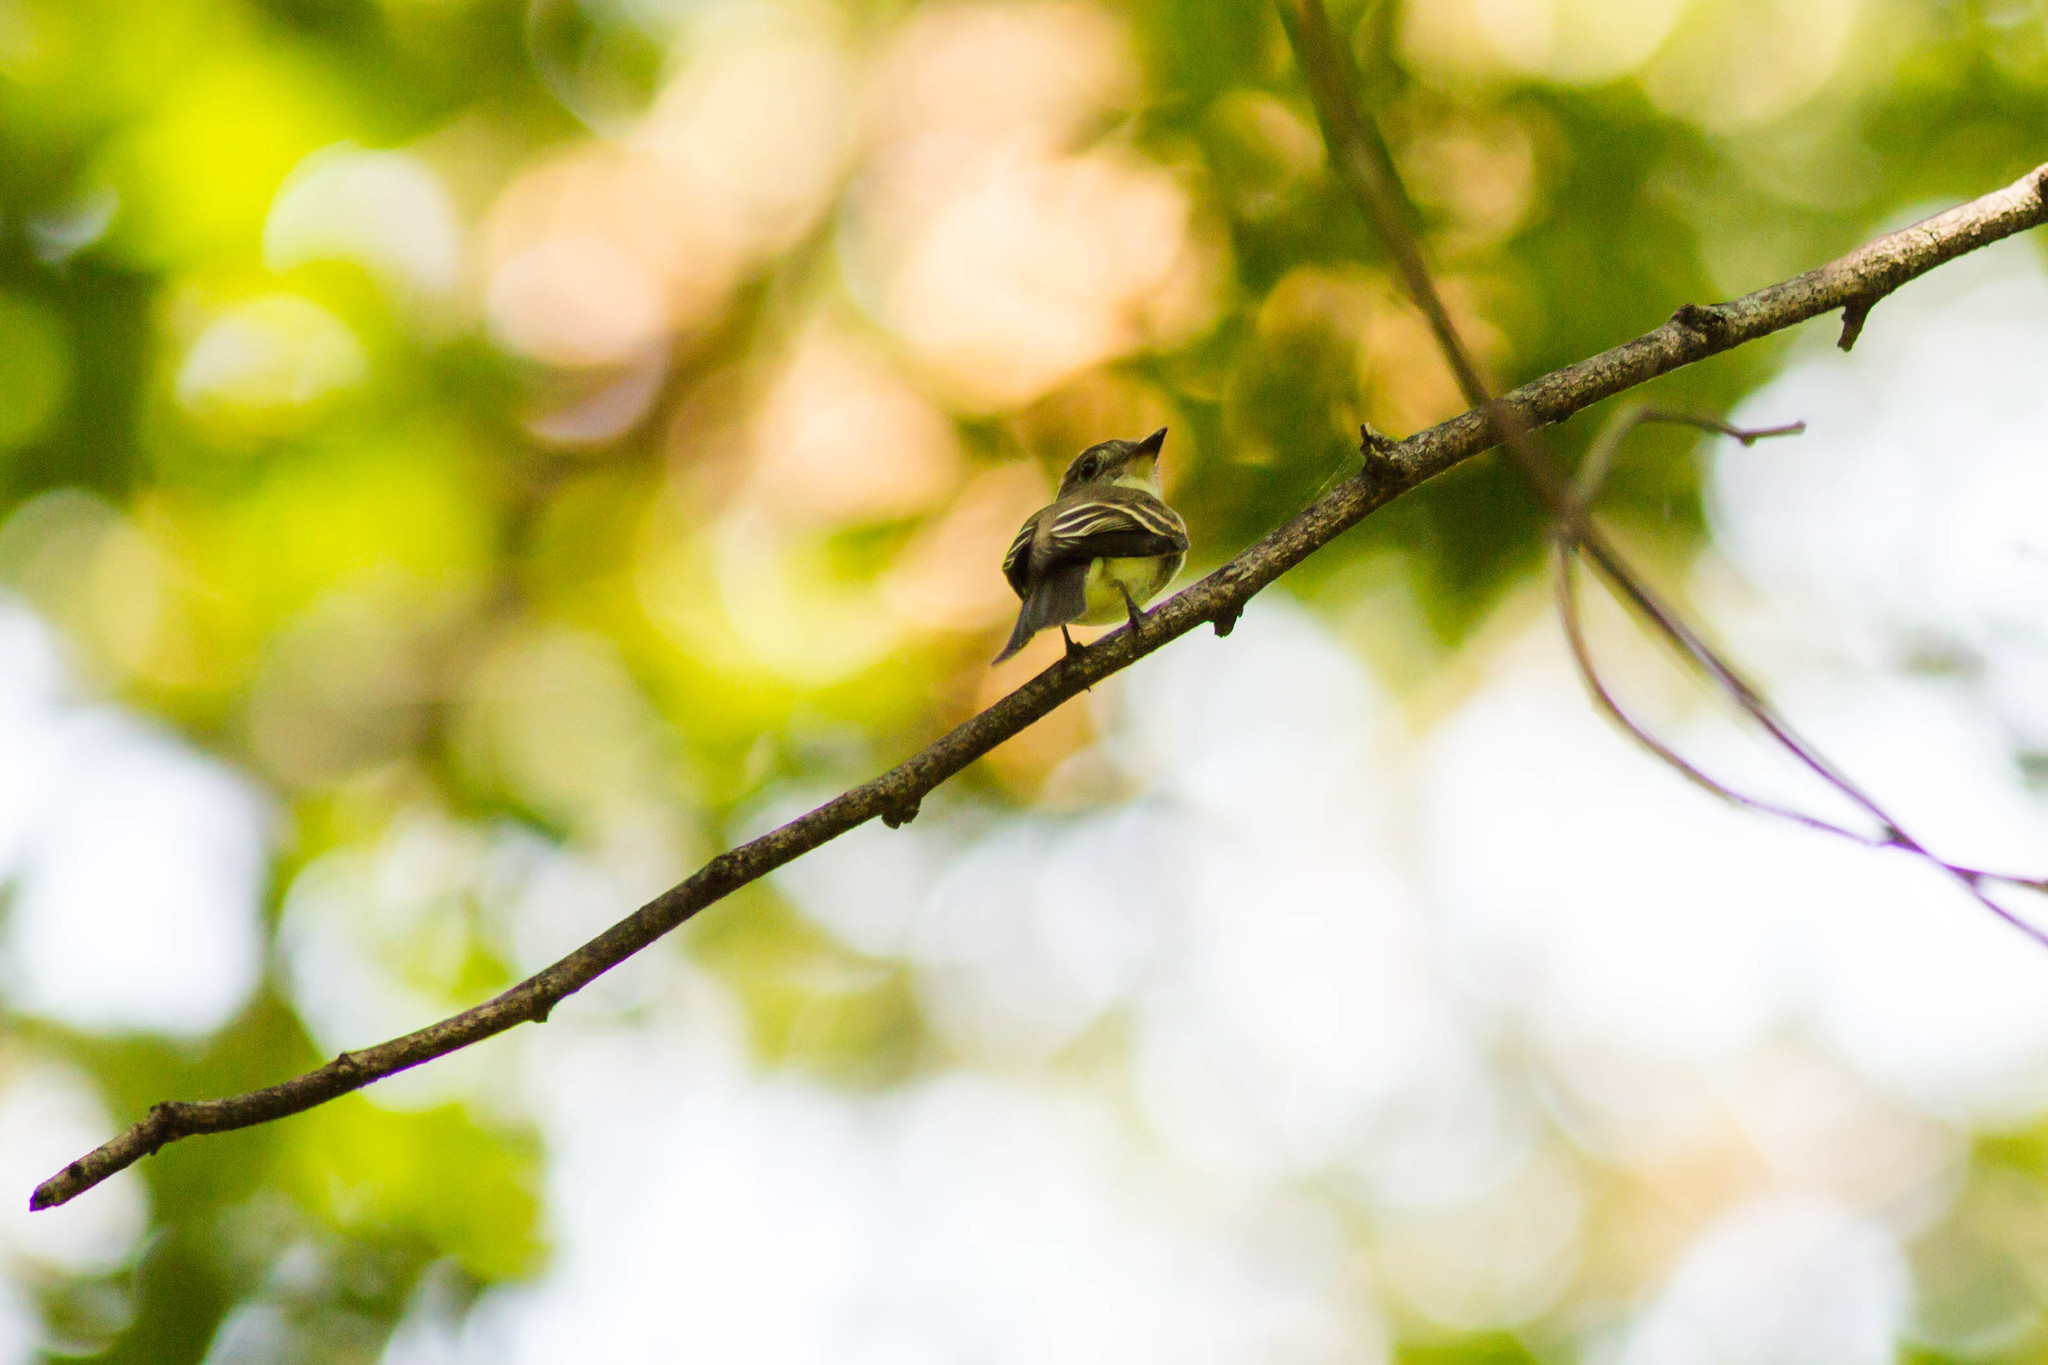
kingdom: Animalia
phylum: Chordata
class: Aves
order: Passeriformes
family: Tyrannidae
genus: Contopus
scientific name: Contopus virens
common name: Eastern wood-pewee
